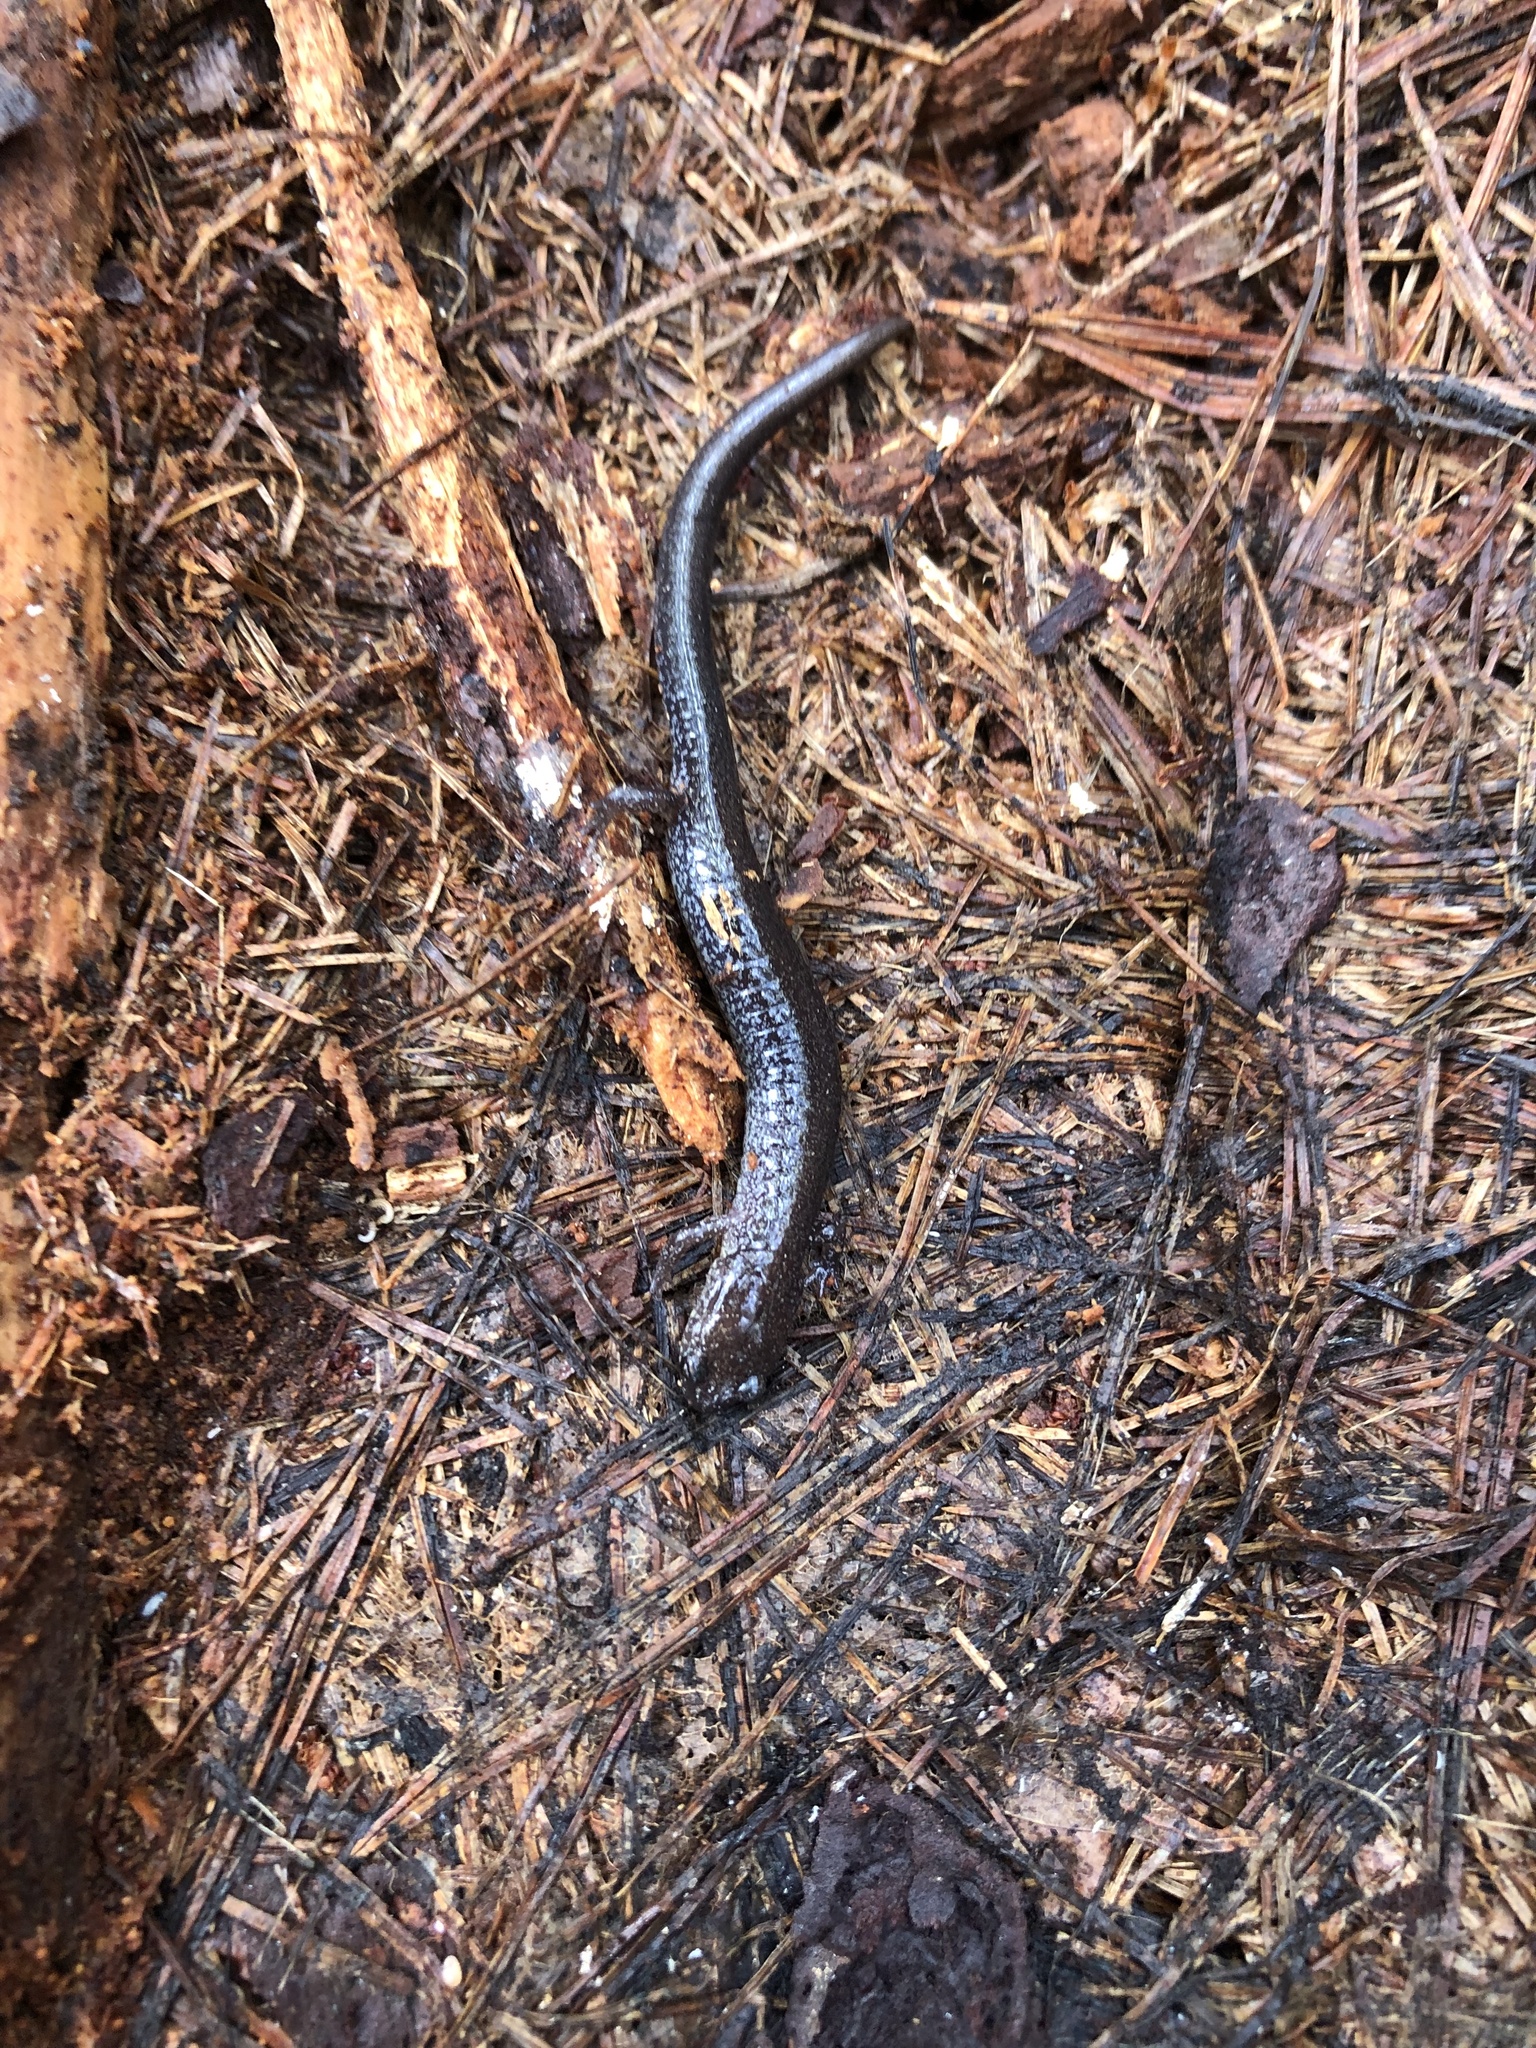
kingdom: Animalia
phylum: Chordata
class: Amphibia
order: Caudata
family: Plethodontidae
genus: Plethodon
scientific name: Plethodon cinereus
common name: Redback salamander
